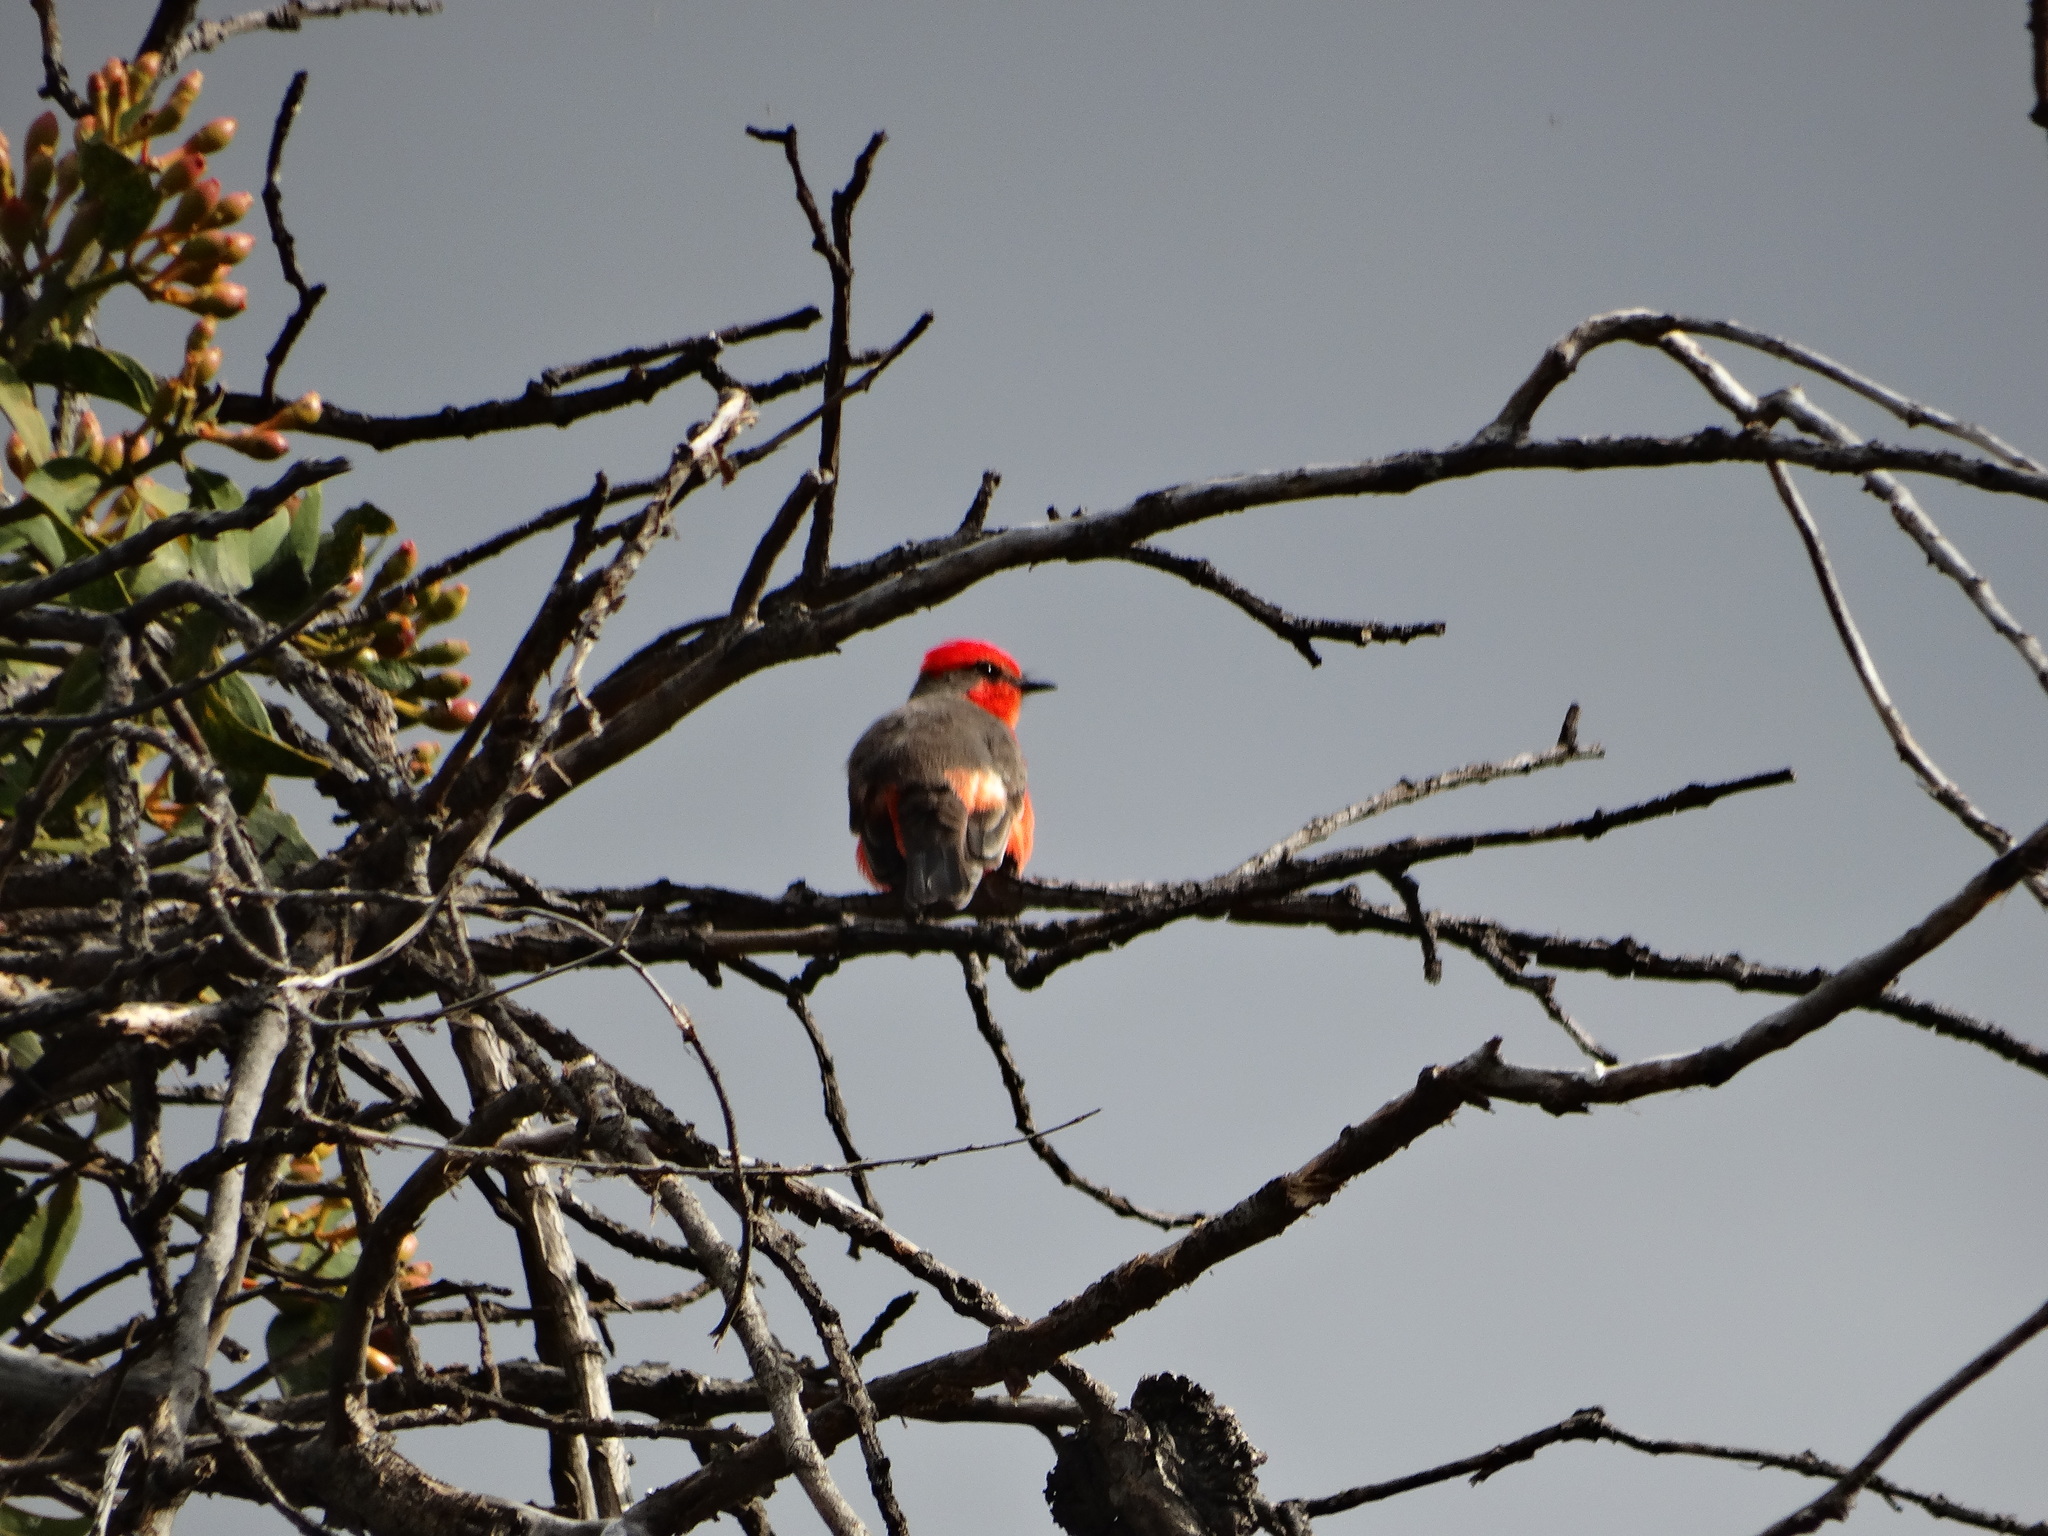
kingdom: Animalia
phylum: Chordata
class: Aves
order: Passeriformes
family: Tyrannidae
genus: Pyrocephalus
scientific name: Pyrocephalus rubinus
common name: Vermilion flycatcher
